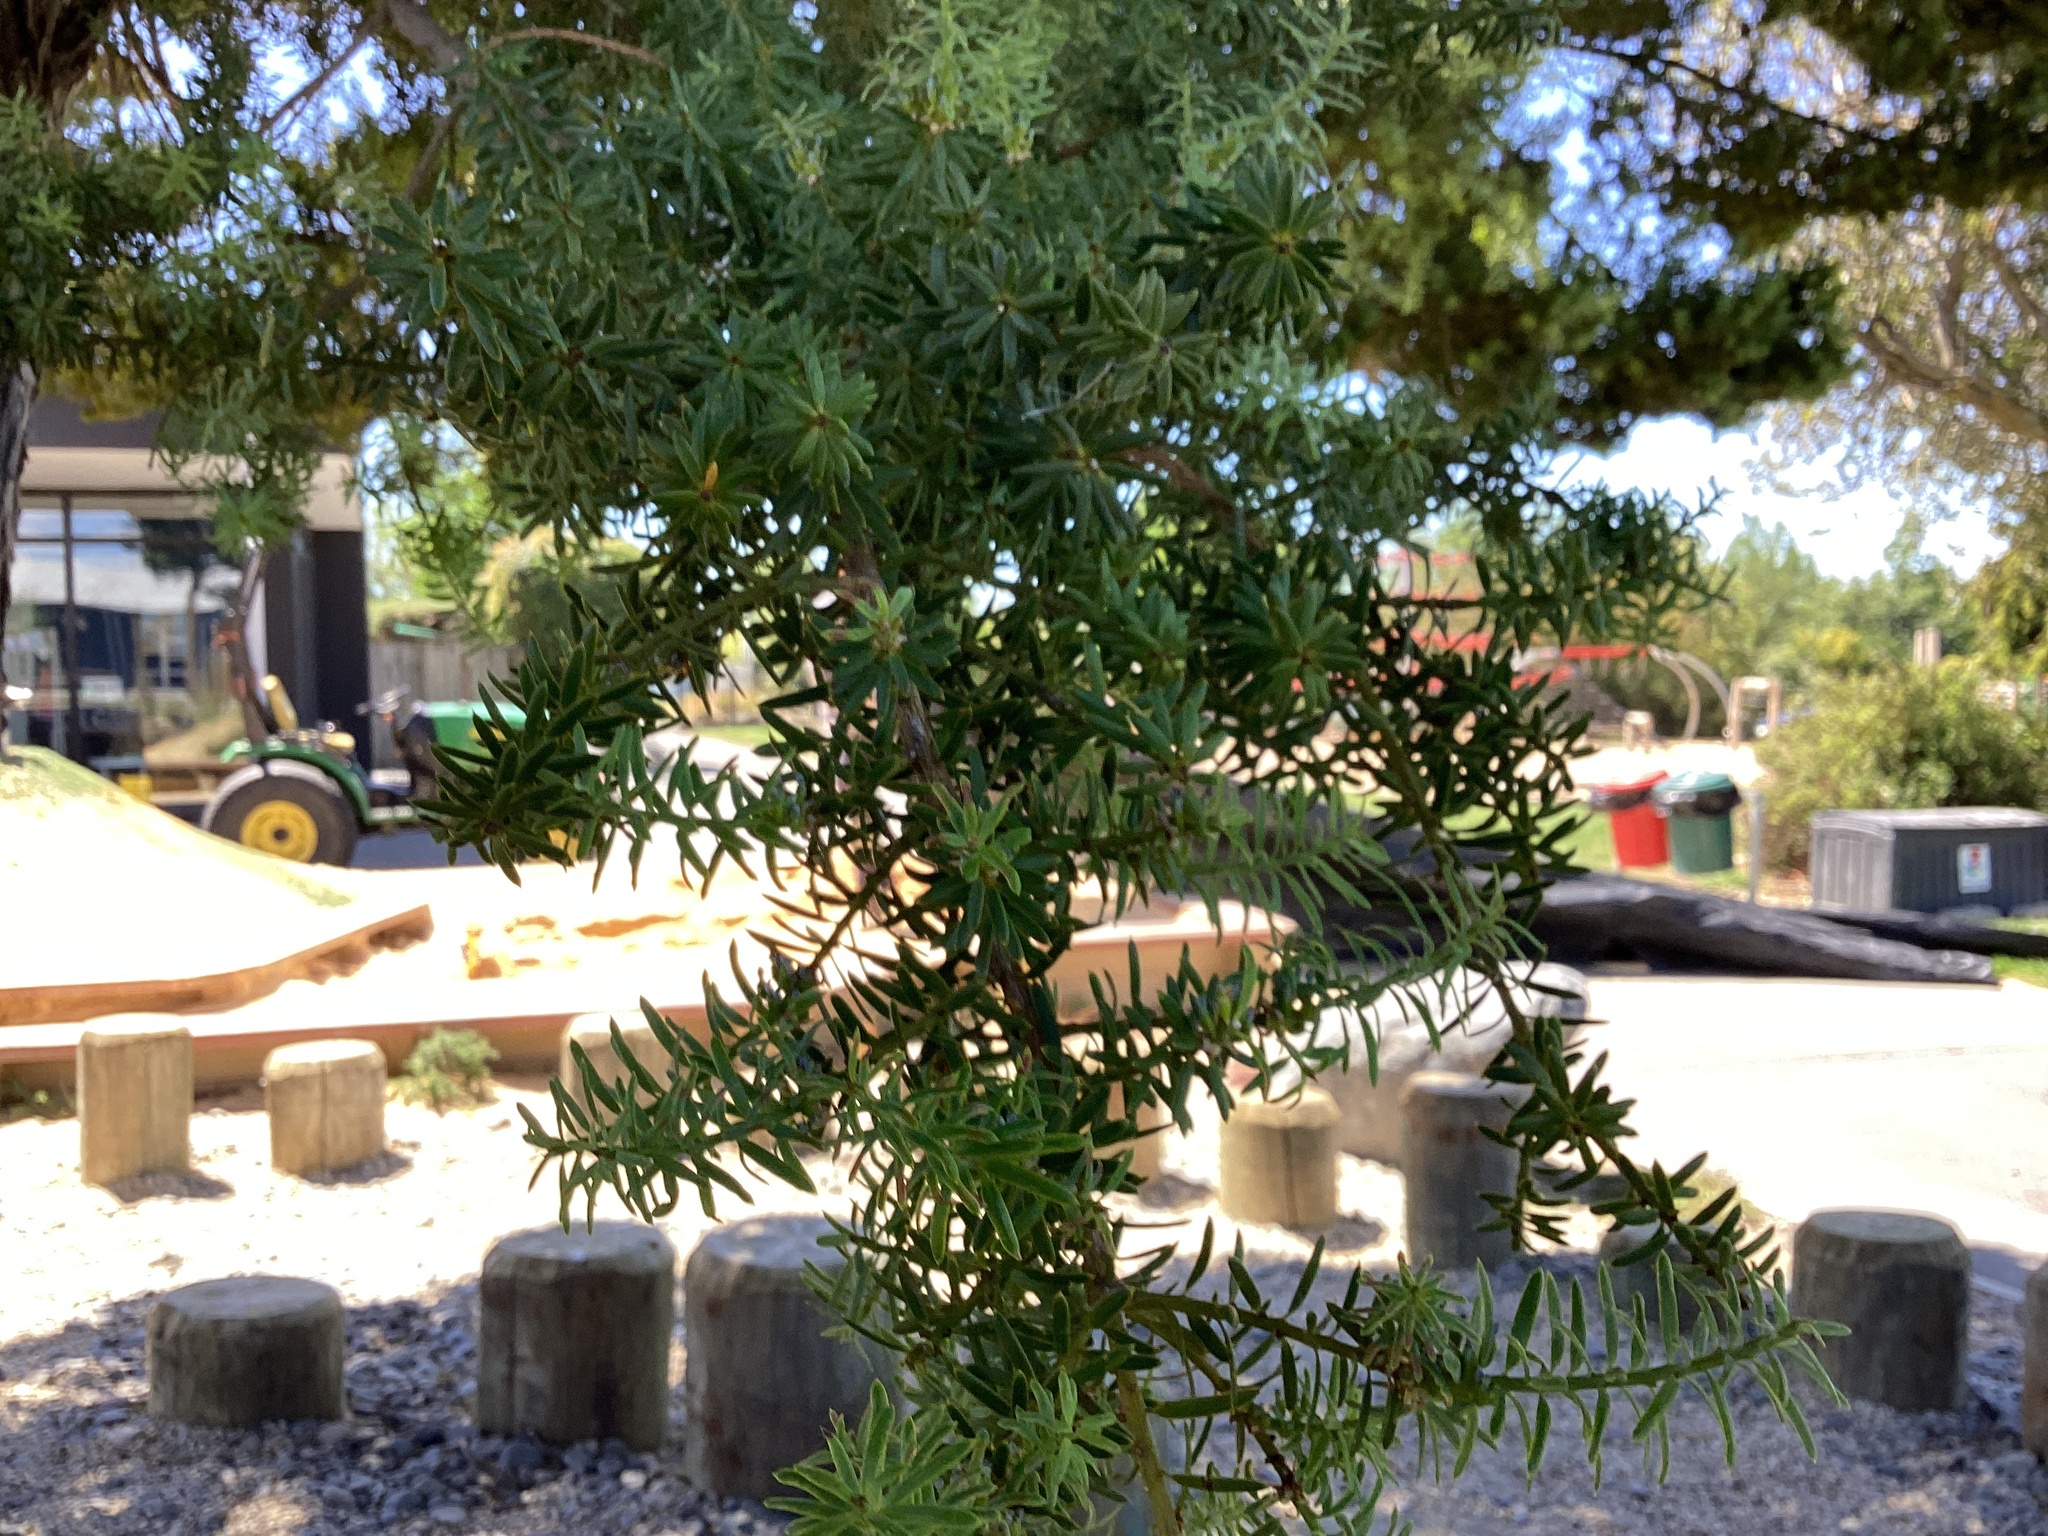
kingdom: Plantae
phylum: Tracheophyta
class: Pinopsida
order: Pinales
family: Podocarpaceae
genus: Podocarpus
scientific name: Podocarpus totara
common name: Totara
